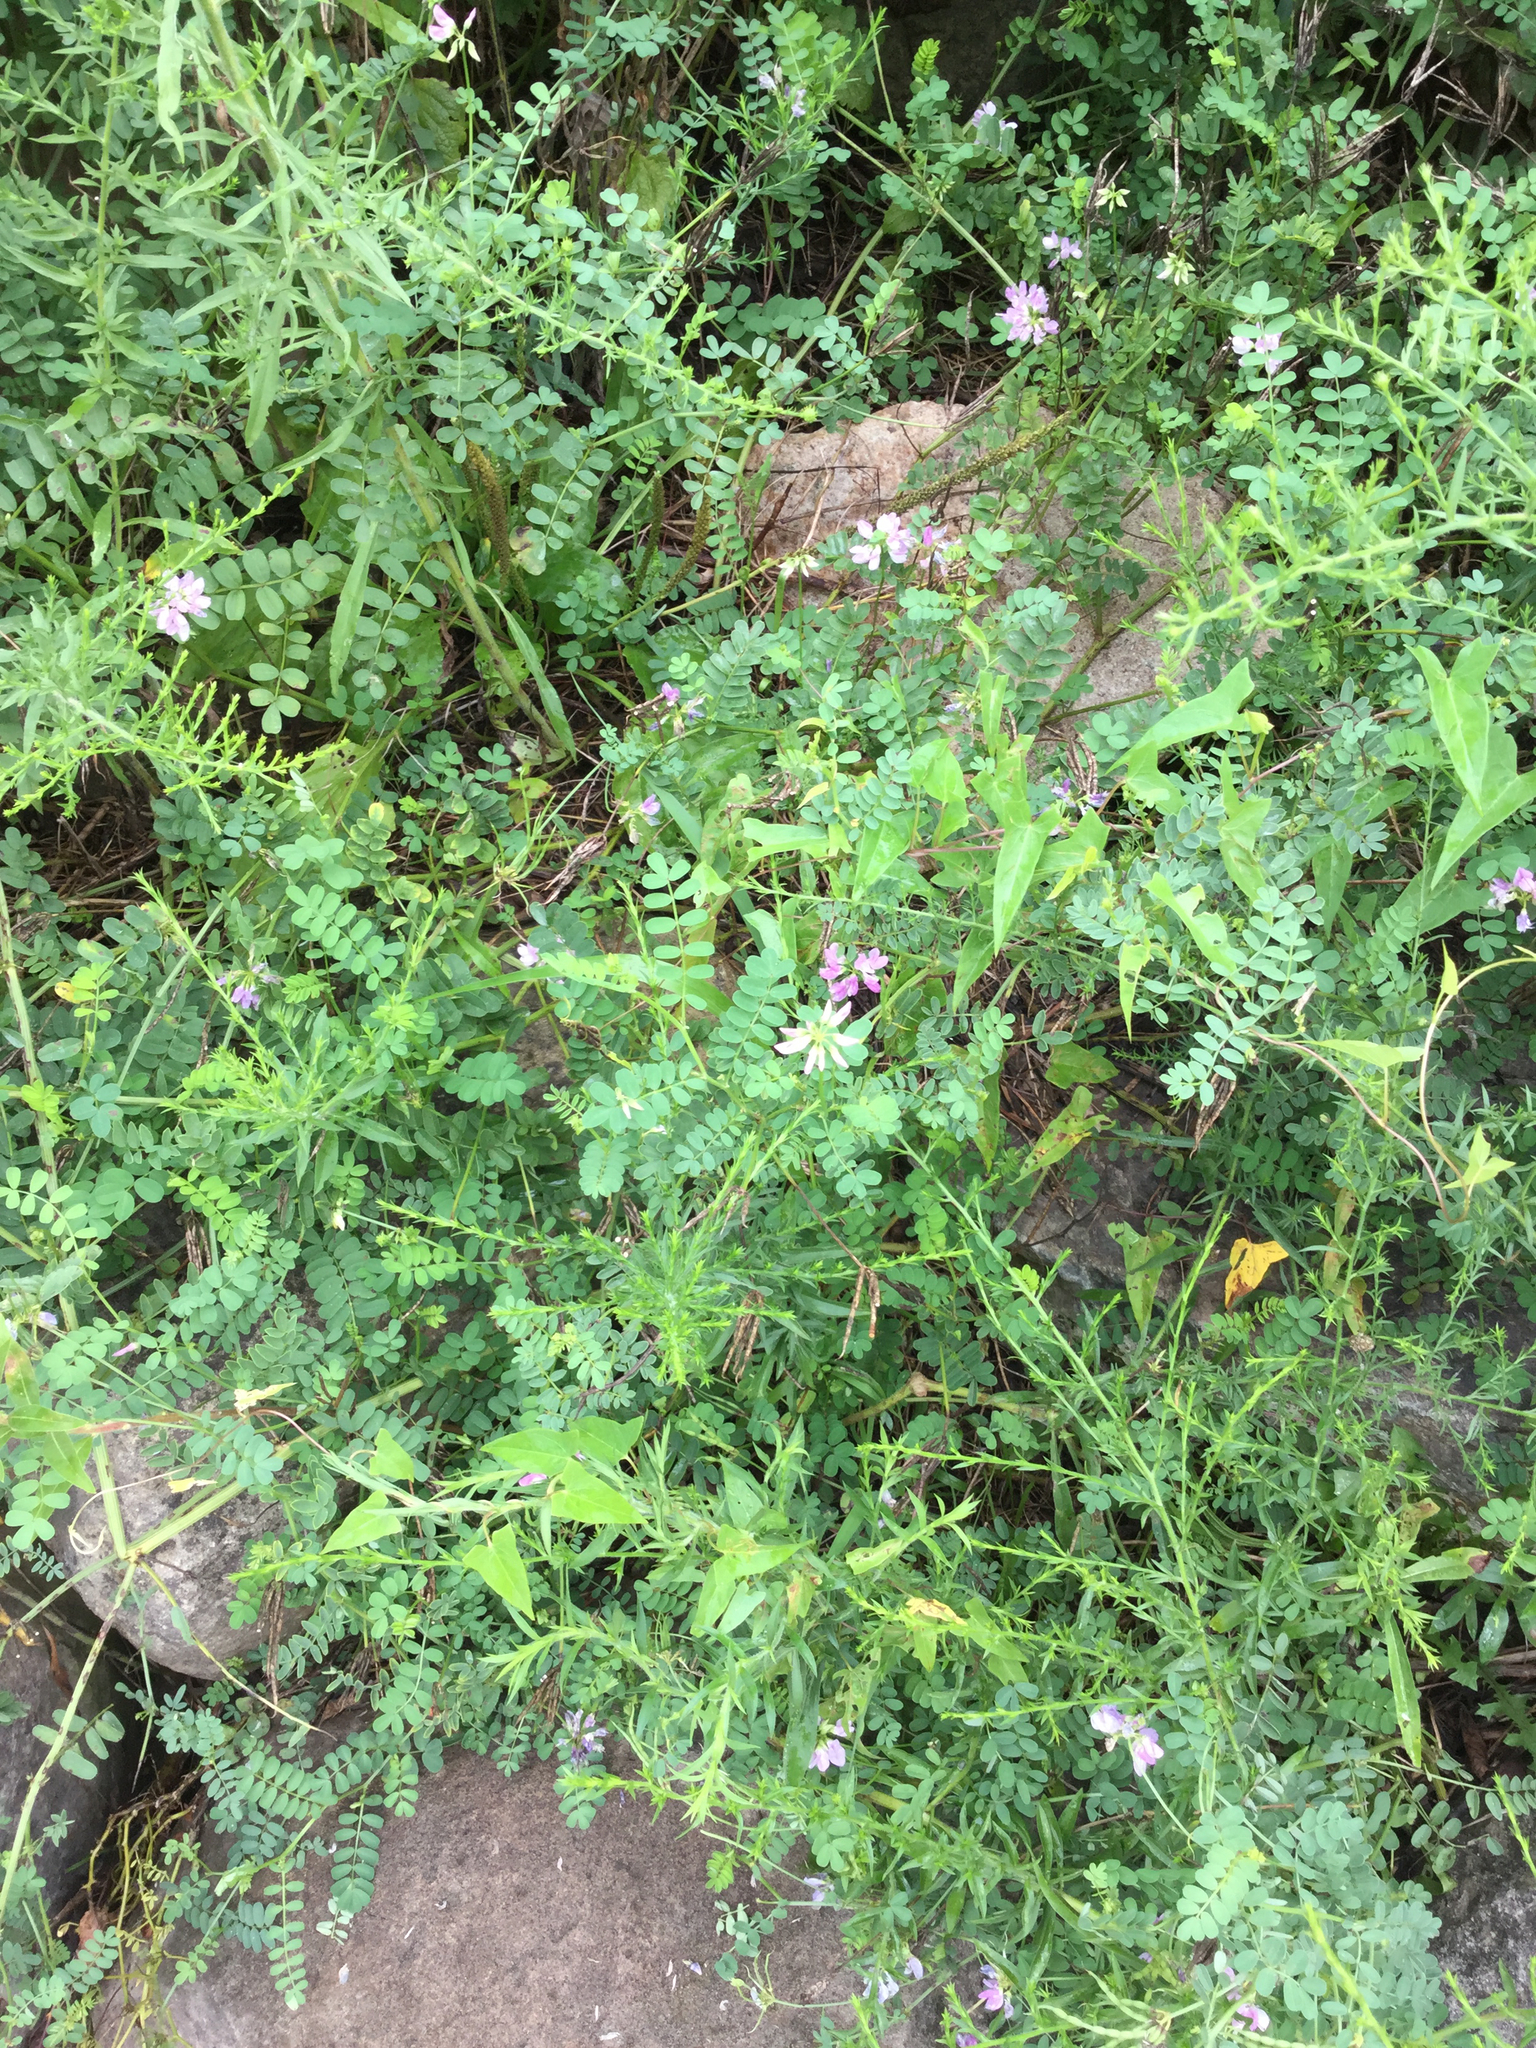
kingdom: Plantae
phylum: Tracheophyta
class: Magnoliopsida
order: Fabales
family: Fabaceae
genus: Coronilla
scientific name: Coronilla varia
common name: Crownvetch
